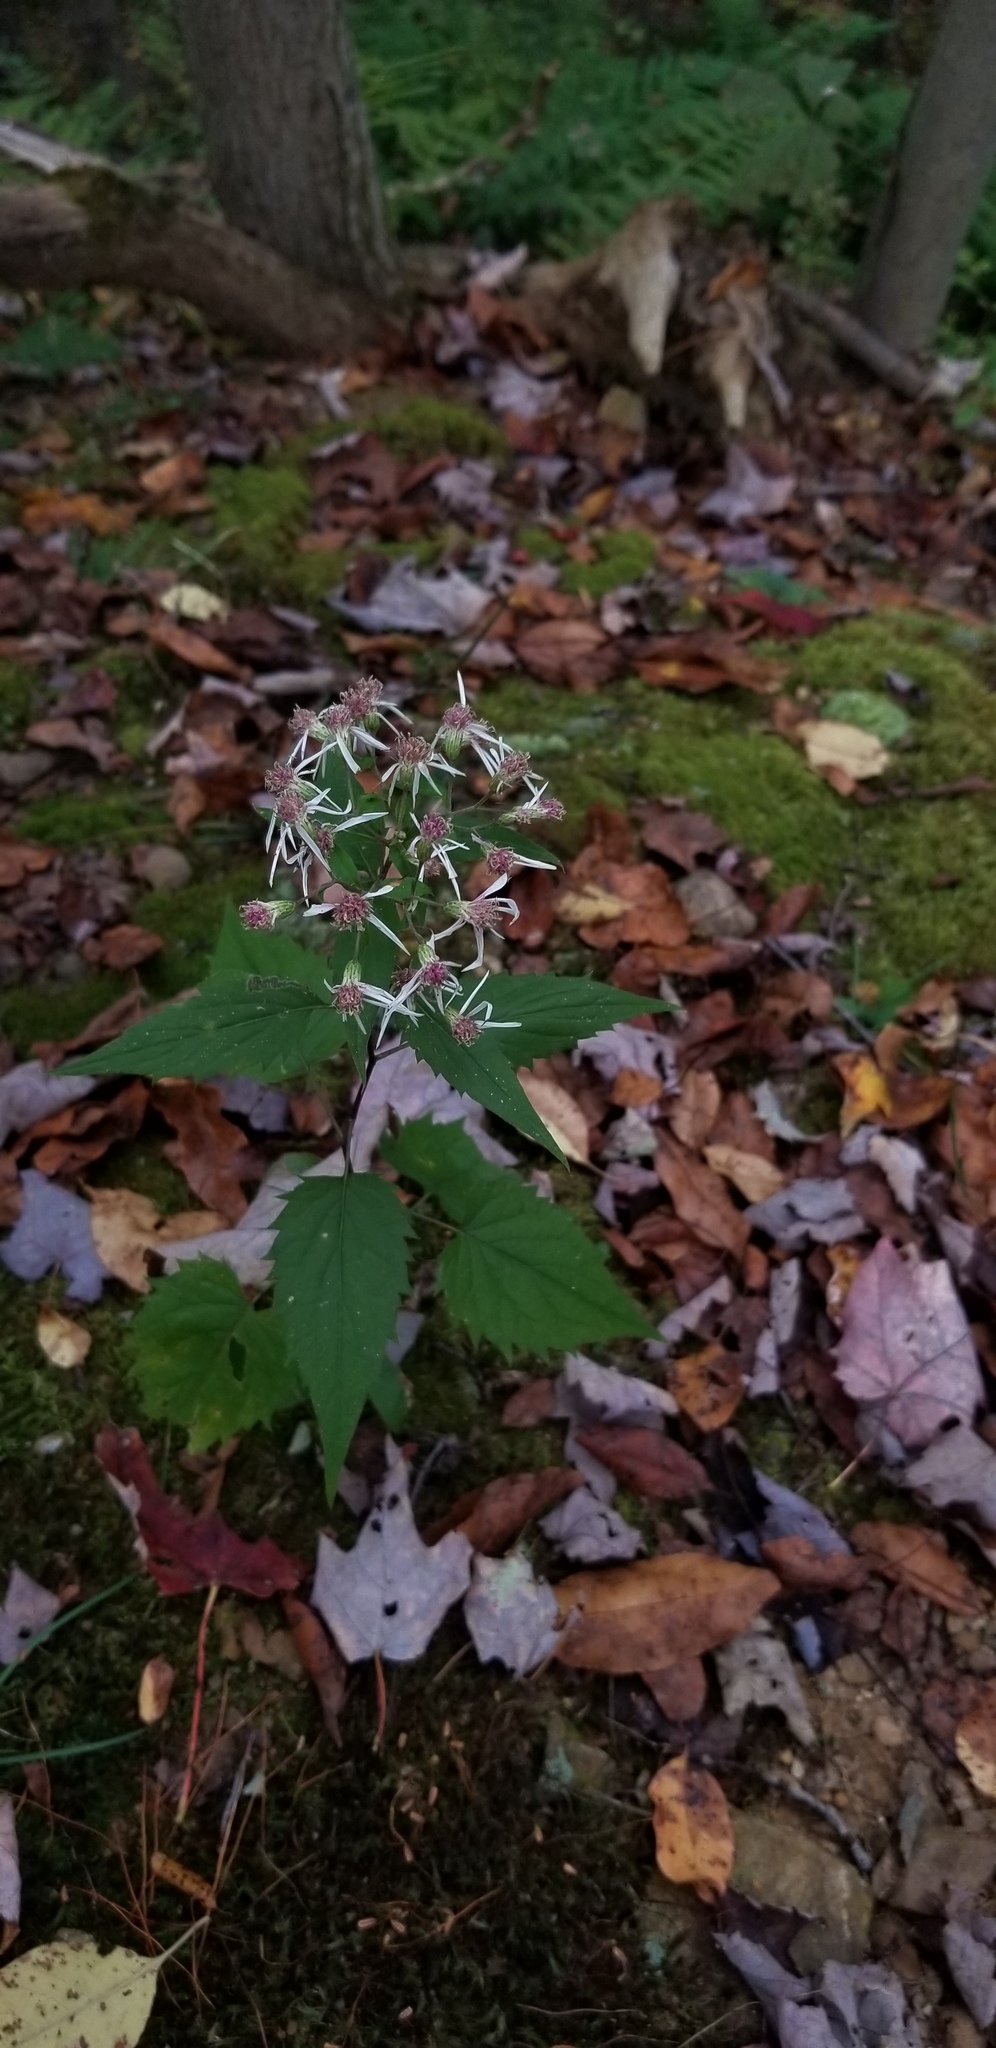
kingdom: Plantae
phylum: Tracheophyta
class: Magnoliopsida
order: Asterales
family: Asteraceae
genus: Eurybia
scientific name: Eurybia divaricata
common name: White wood aster
